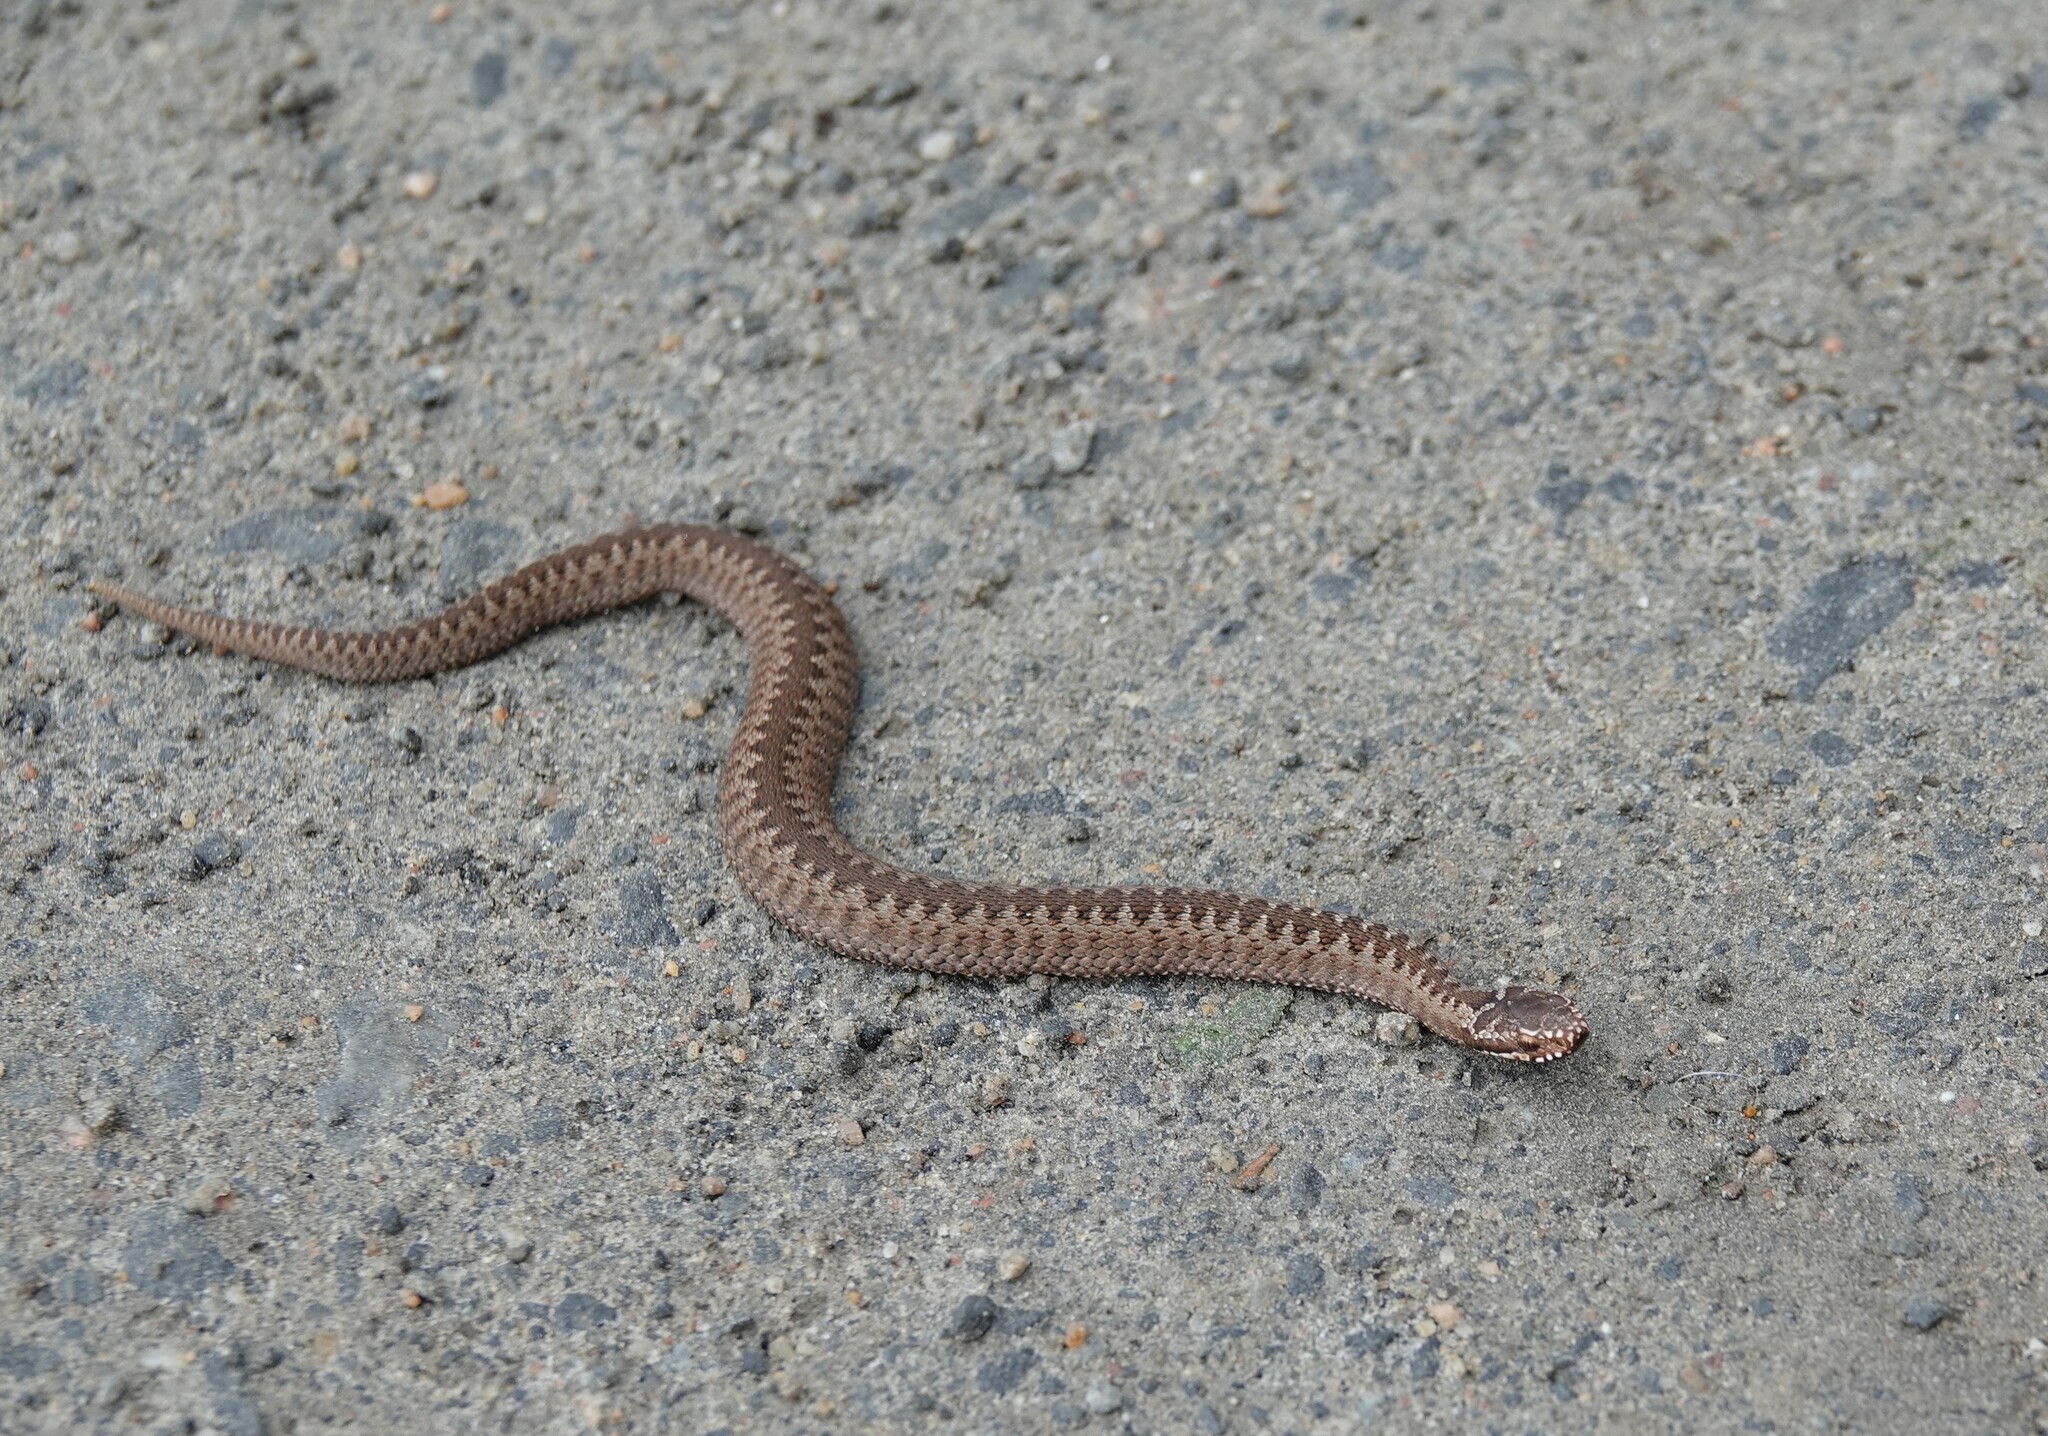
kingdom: Animalia
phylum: Chordata
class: Squamata
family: Viperidae
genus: Vipera
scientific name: Vipera berus
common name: Adder
